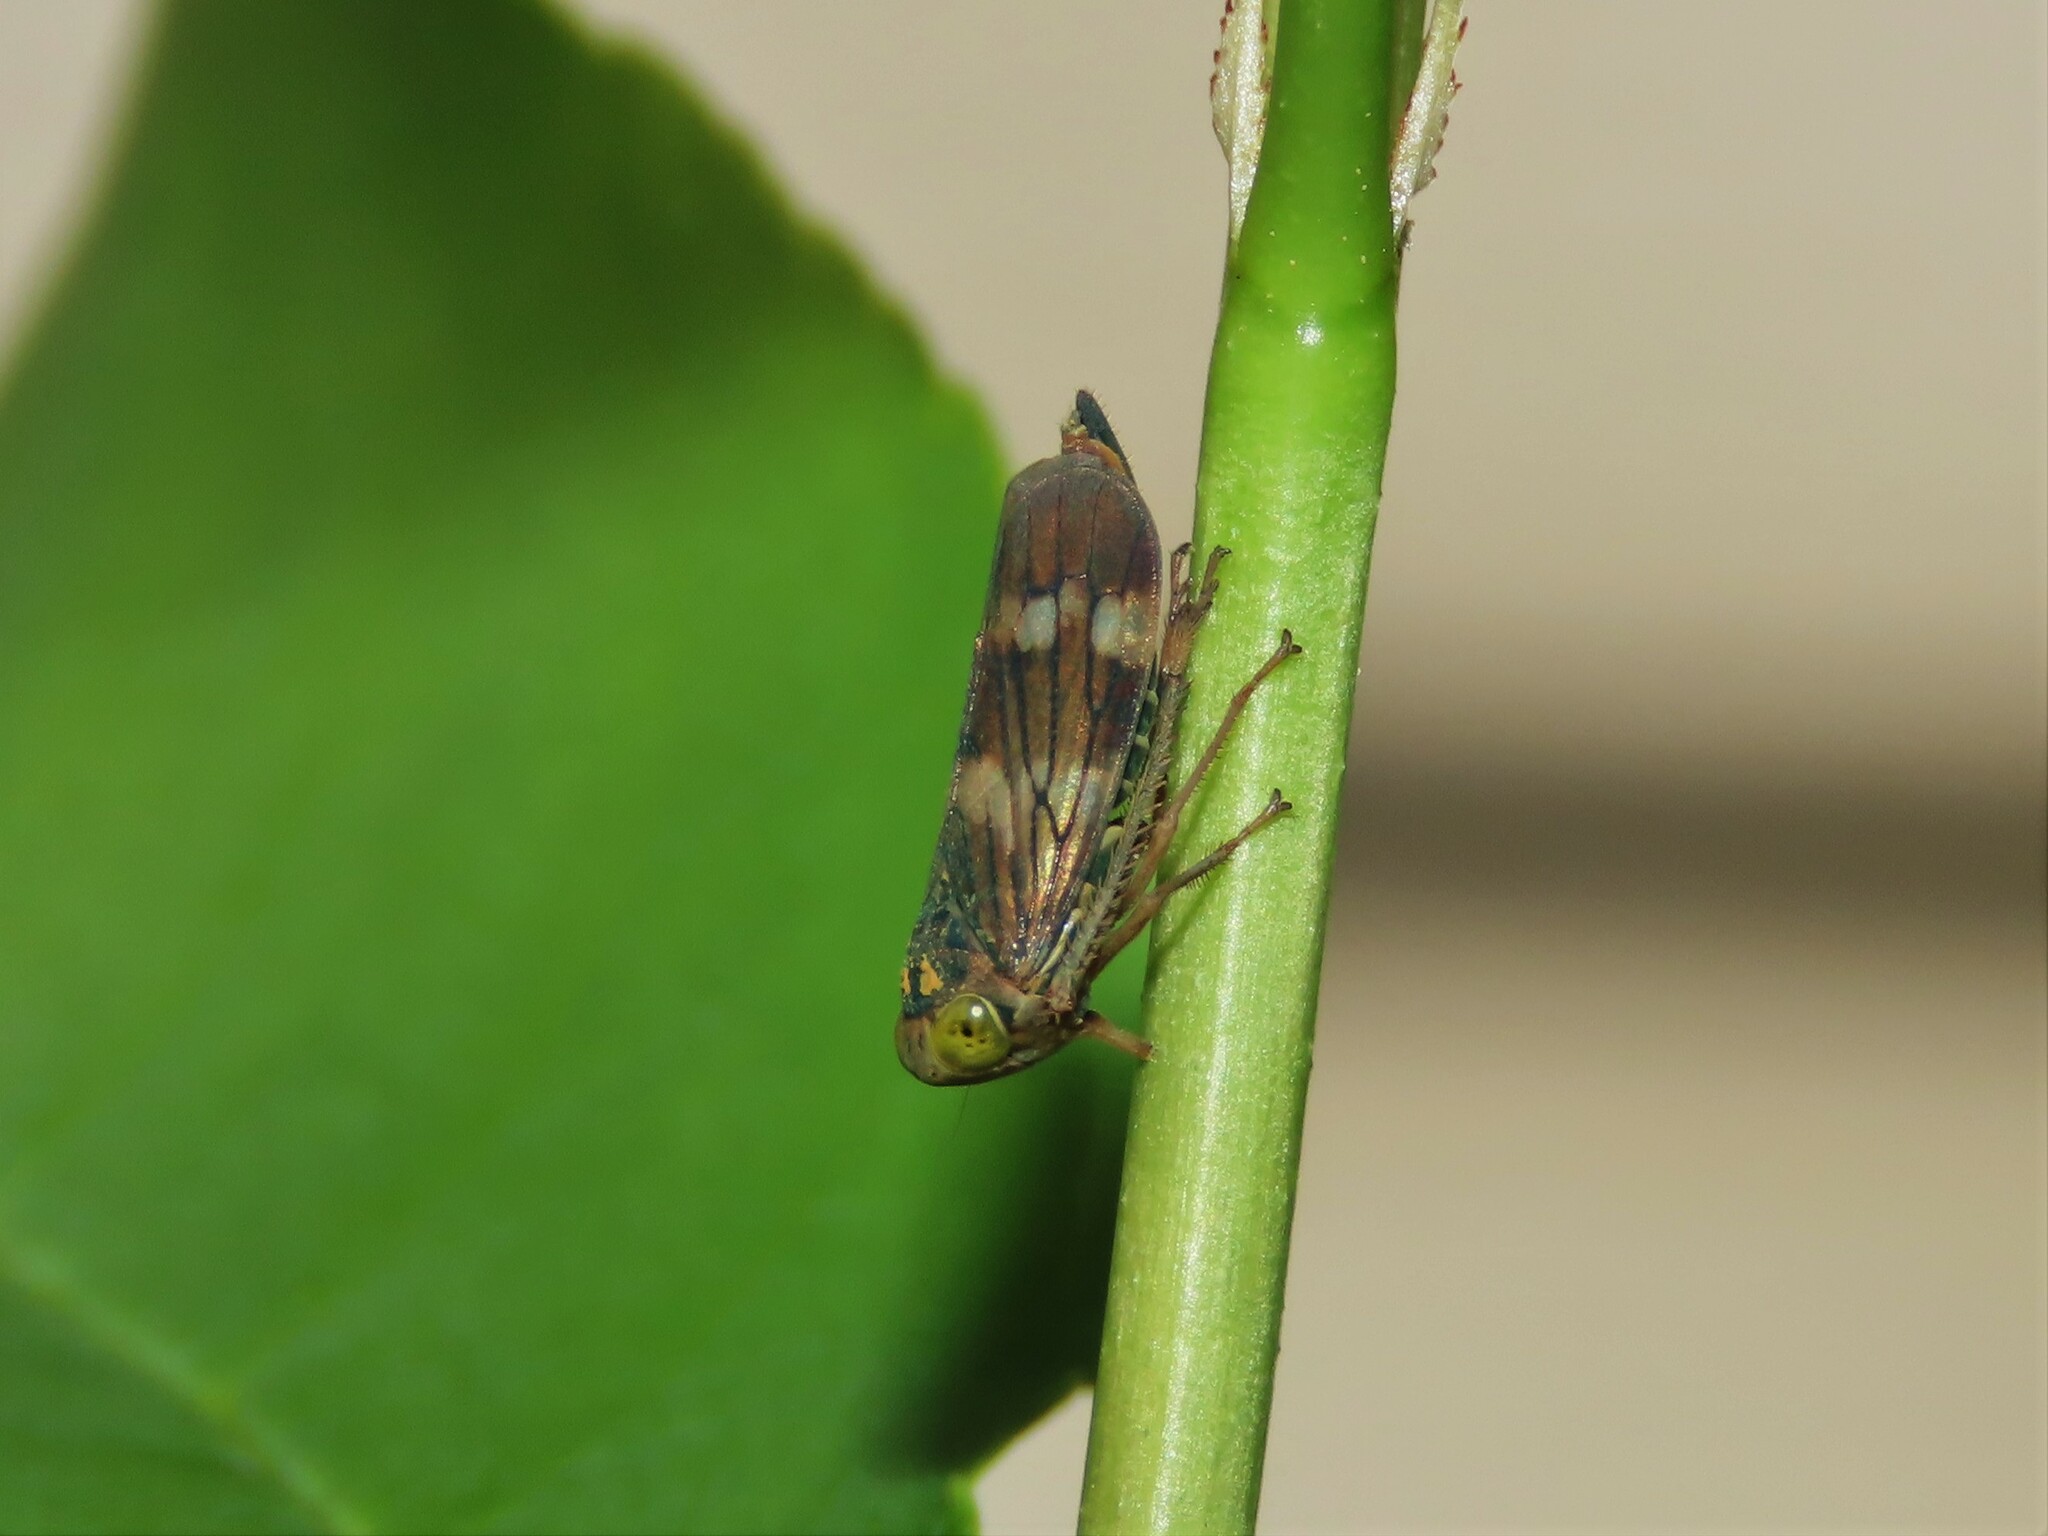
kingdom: Animalia
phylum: Arthropoda
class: Insecta
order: Hemiptera
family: Cicadellidae
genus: Jikradia
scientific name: Jikradia olitoria
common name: Coppery leafhopper
